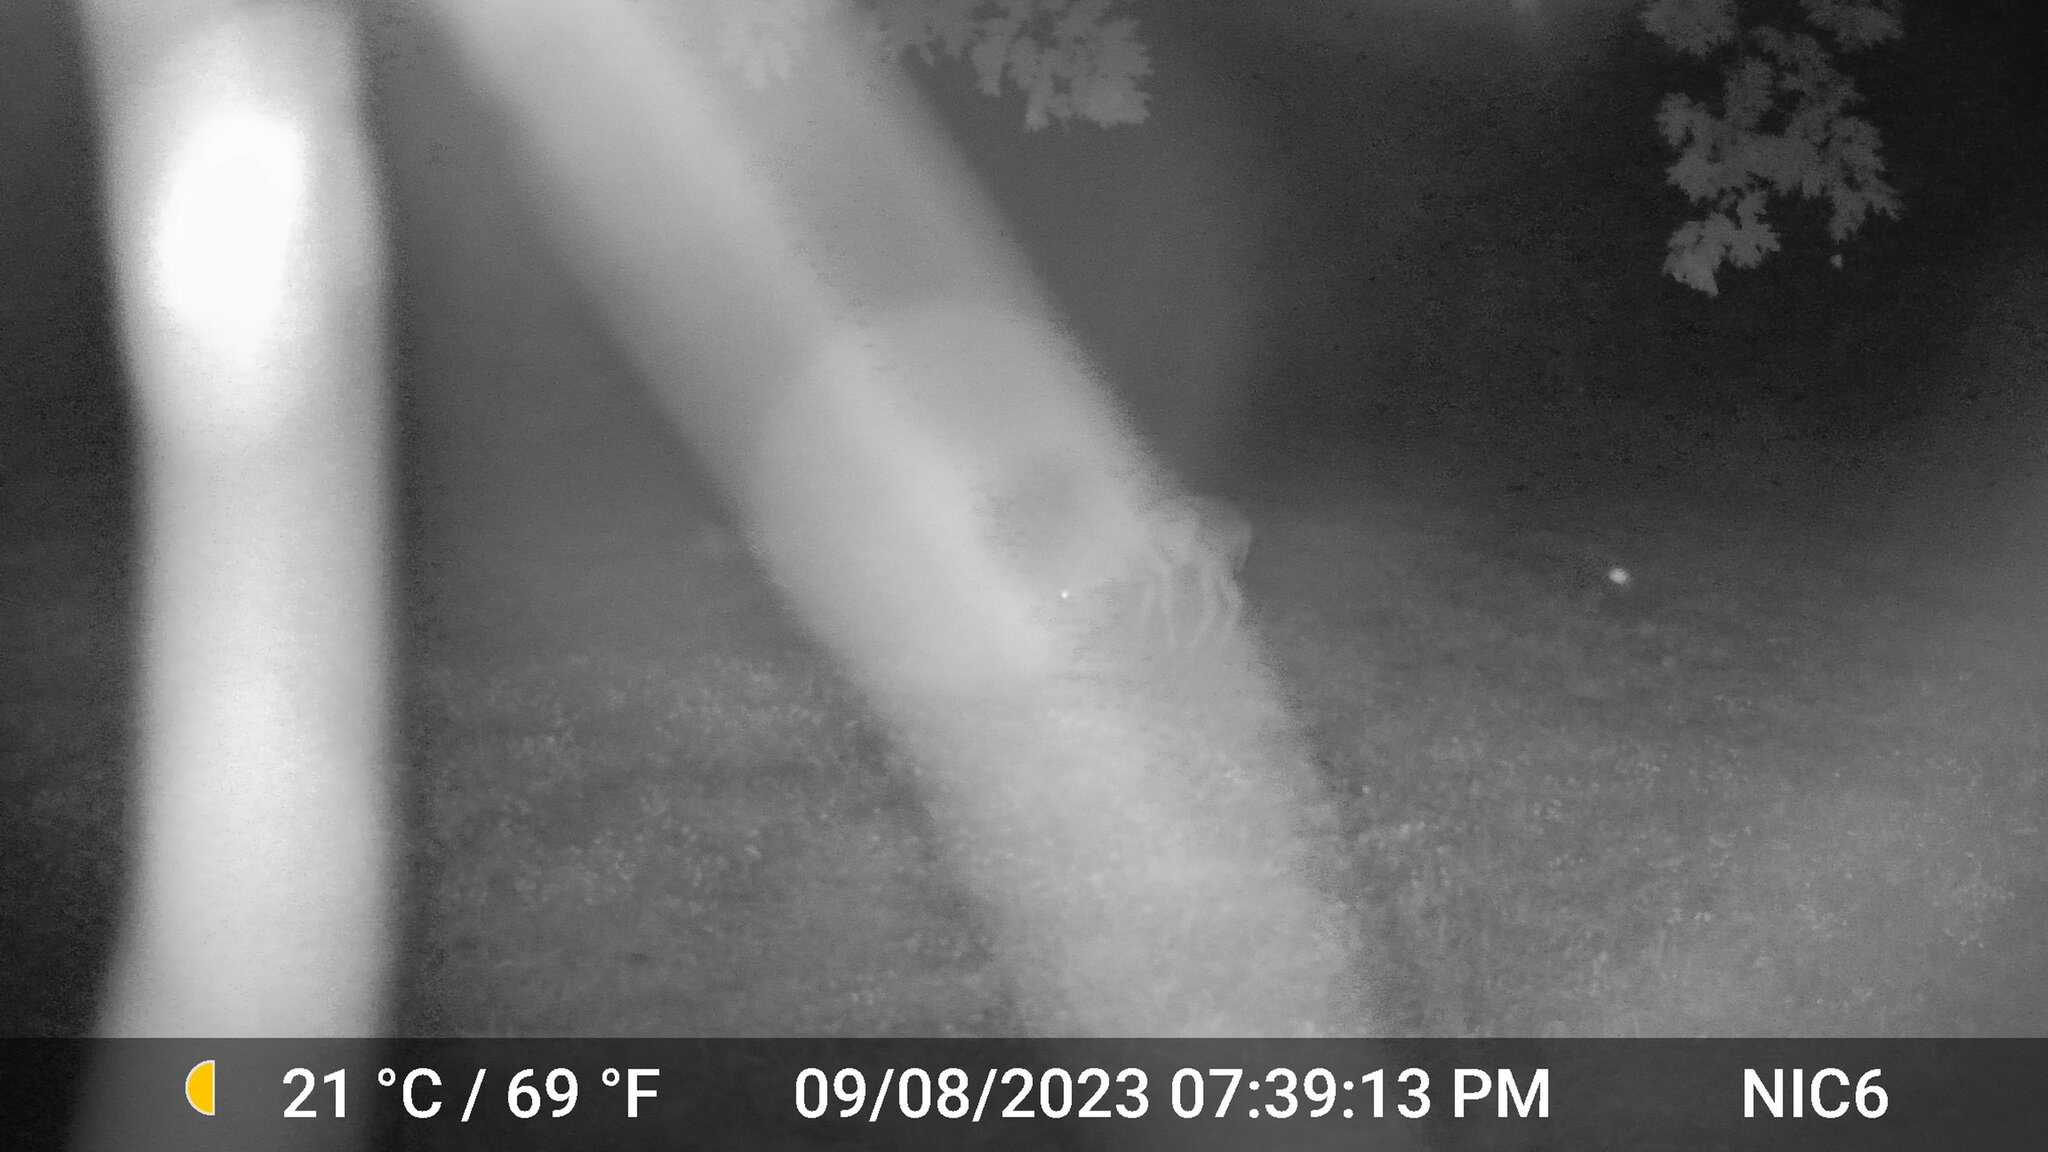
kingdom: Animalia
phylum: Chordata
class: Mammalia
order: Artiodactyla
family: Cervidae
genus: Odocoileus
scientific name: Odocoileus virginianus
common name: White-tailed deer
